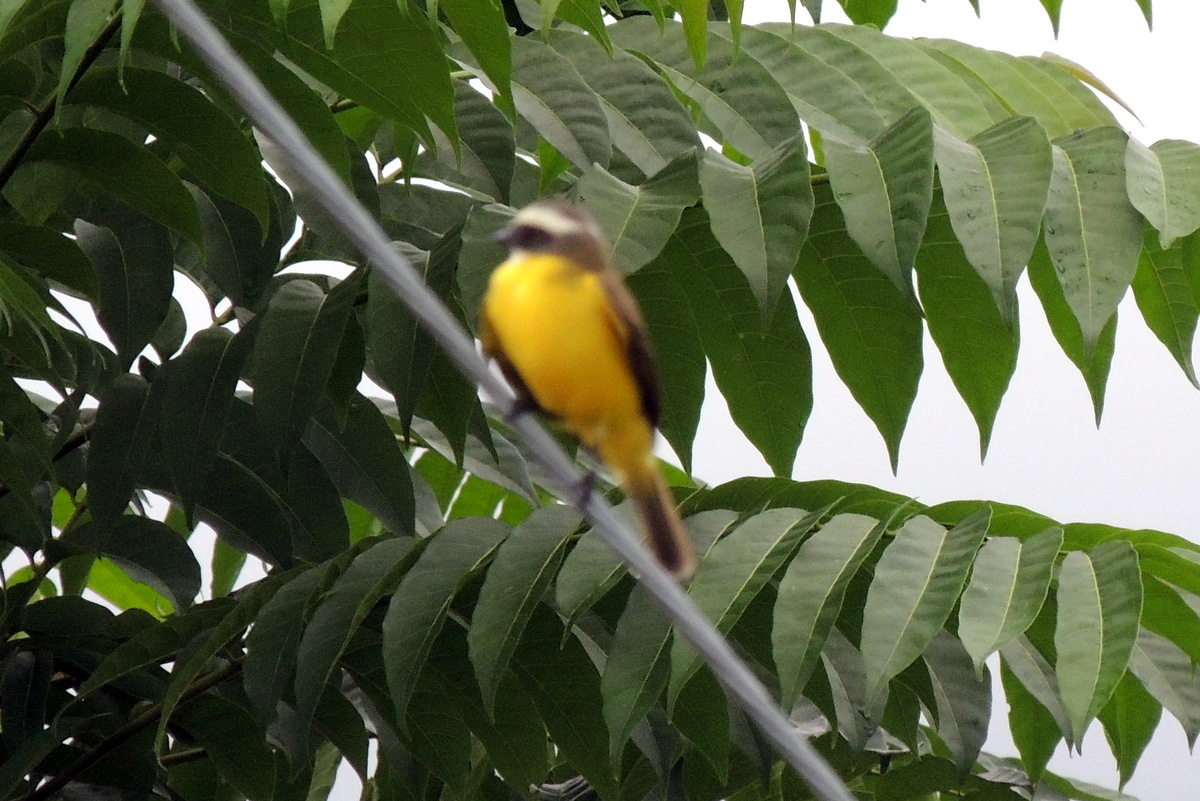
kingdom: Animalia
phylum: Chordata
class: Aves
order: Passeriformes
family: Tyrannidae
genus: Myiozetetes
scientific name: Myiozetetes similis
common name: Social flycatcher
